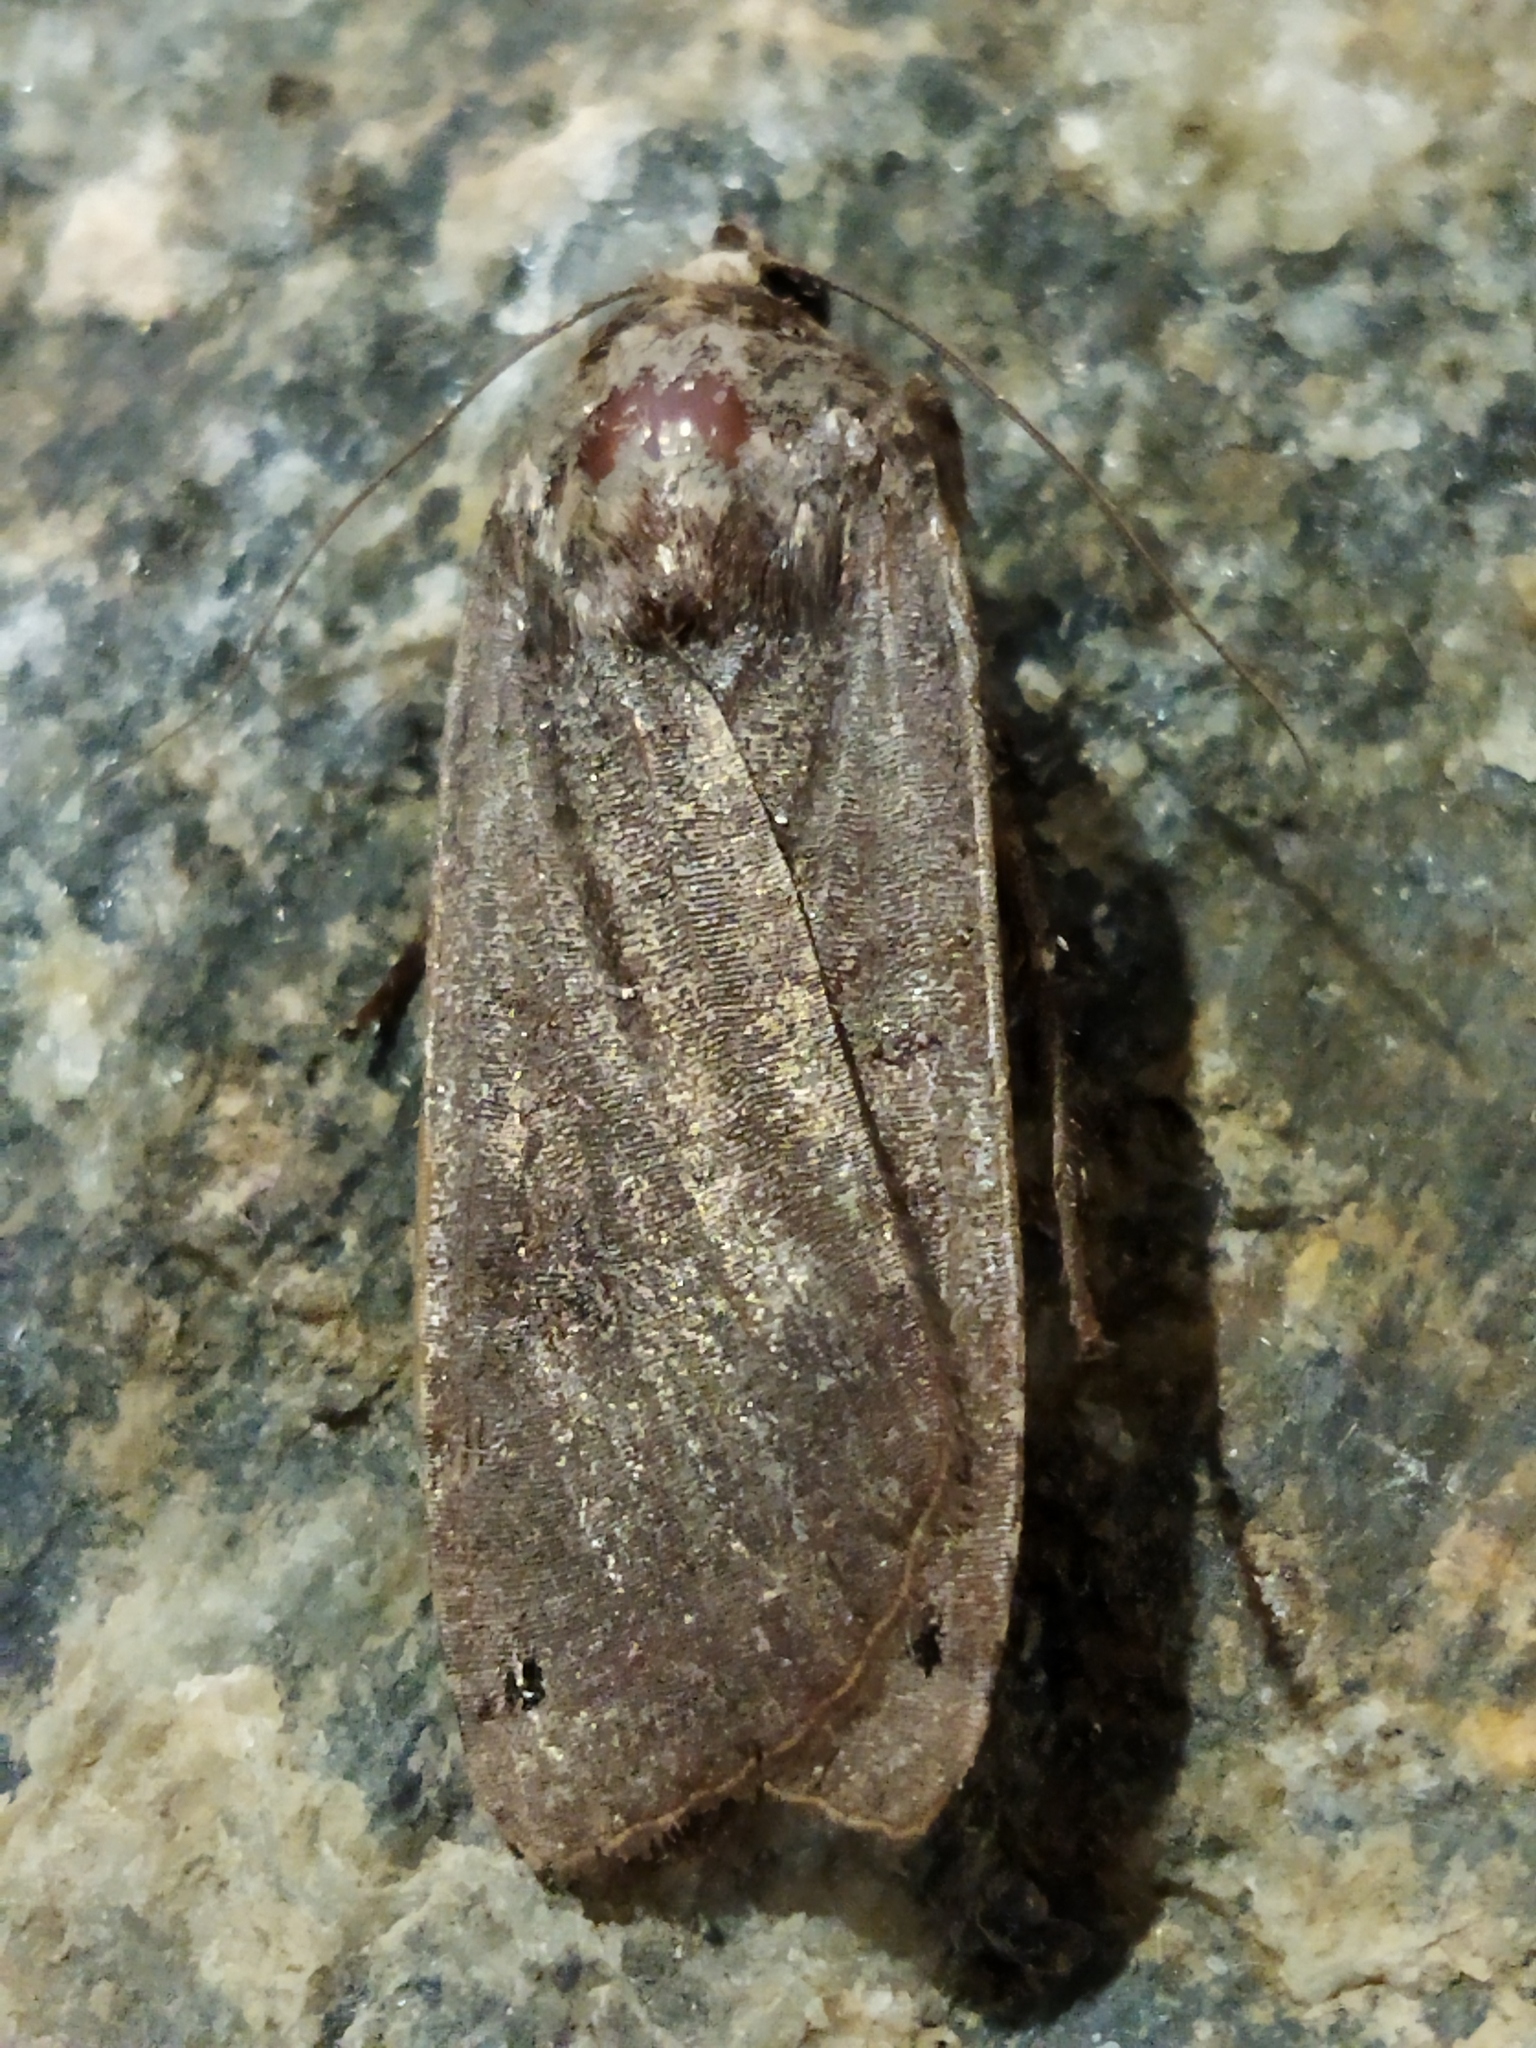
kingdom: Animalia
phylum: Arthropoda
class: Insecta
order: Lepidoptera
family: Noctuidae
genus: Noctua
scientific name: Noctua pronuba
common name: Large yellow underwing
